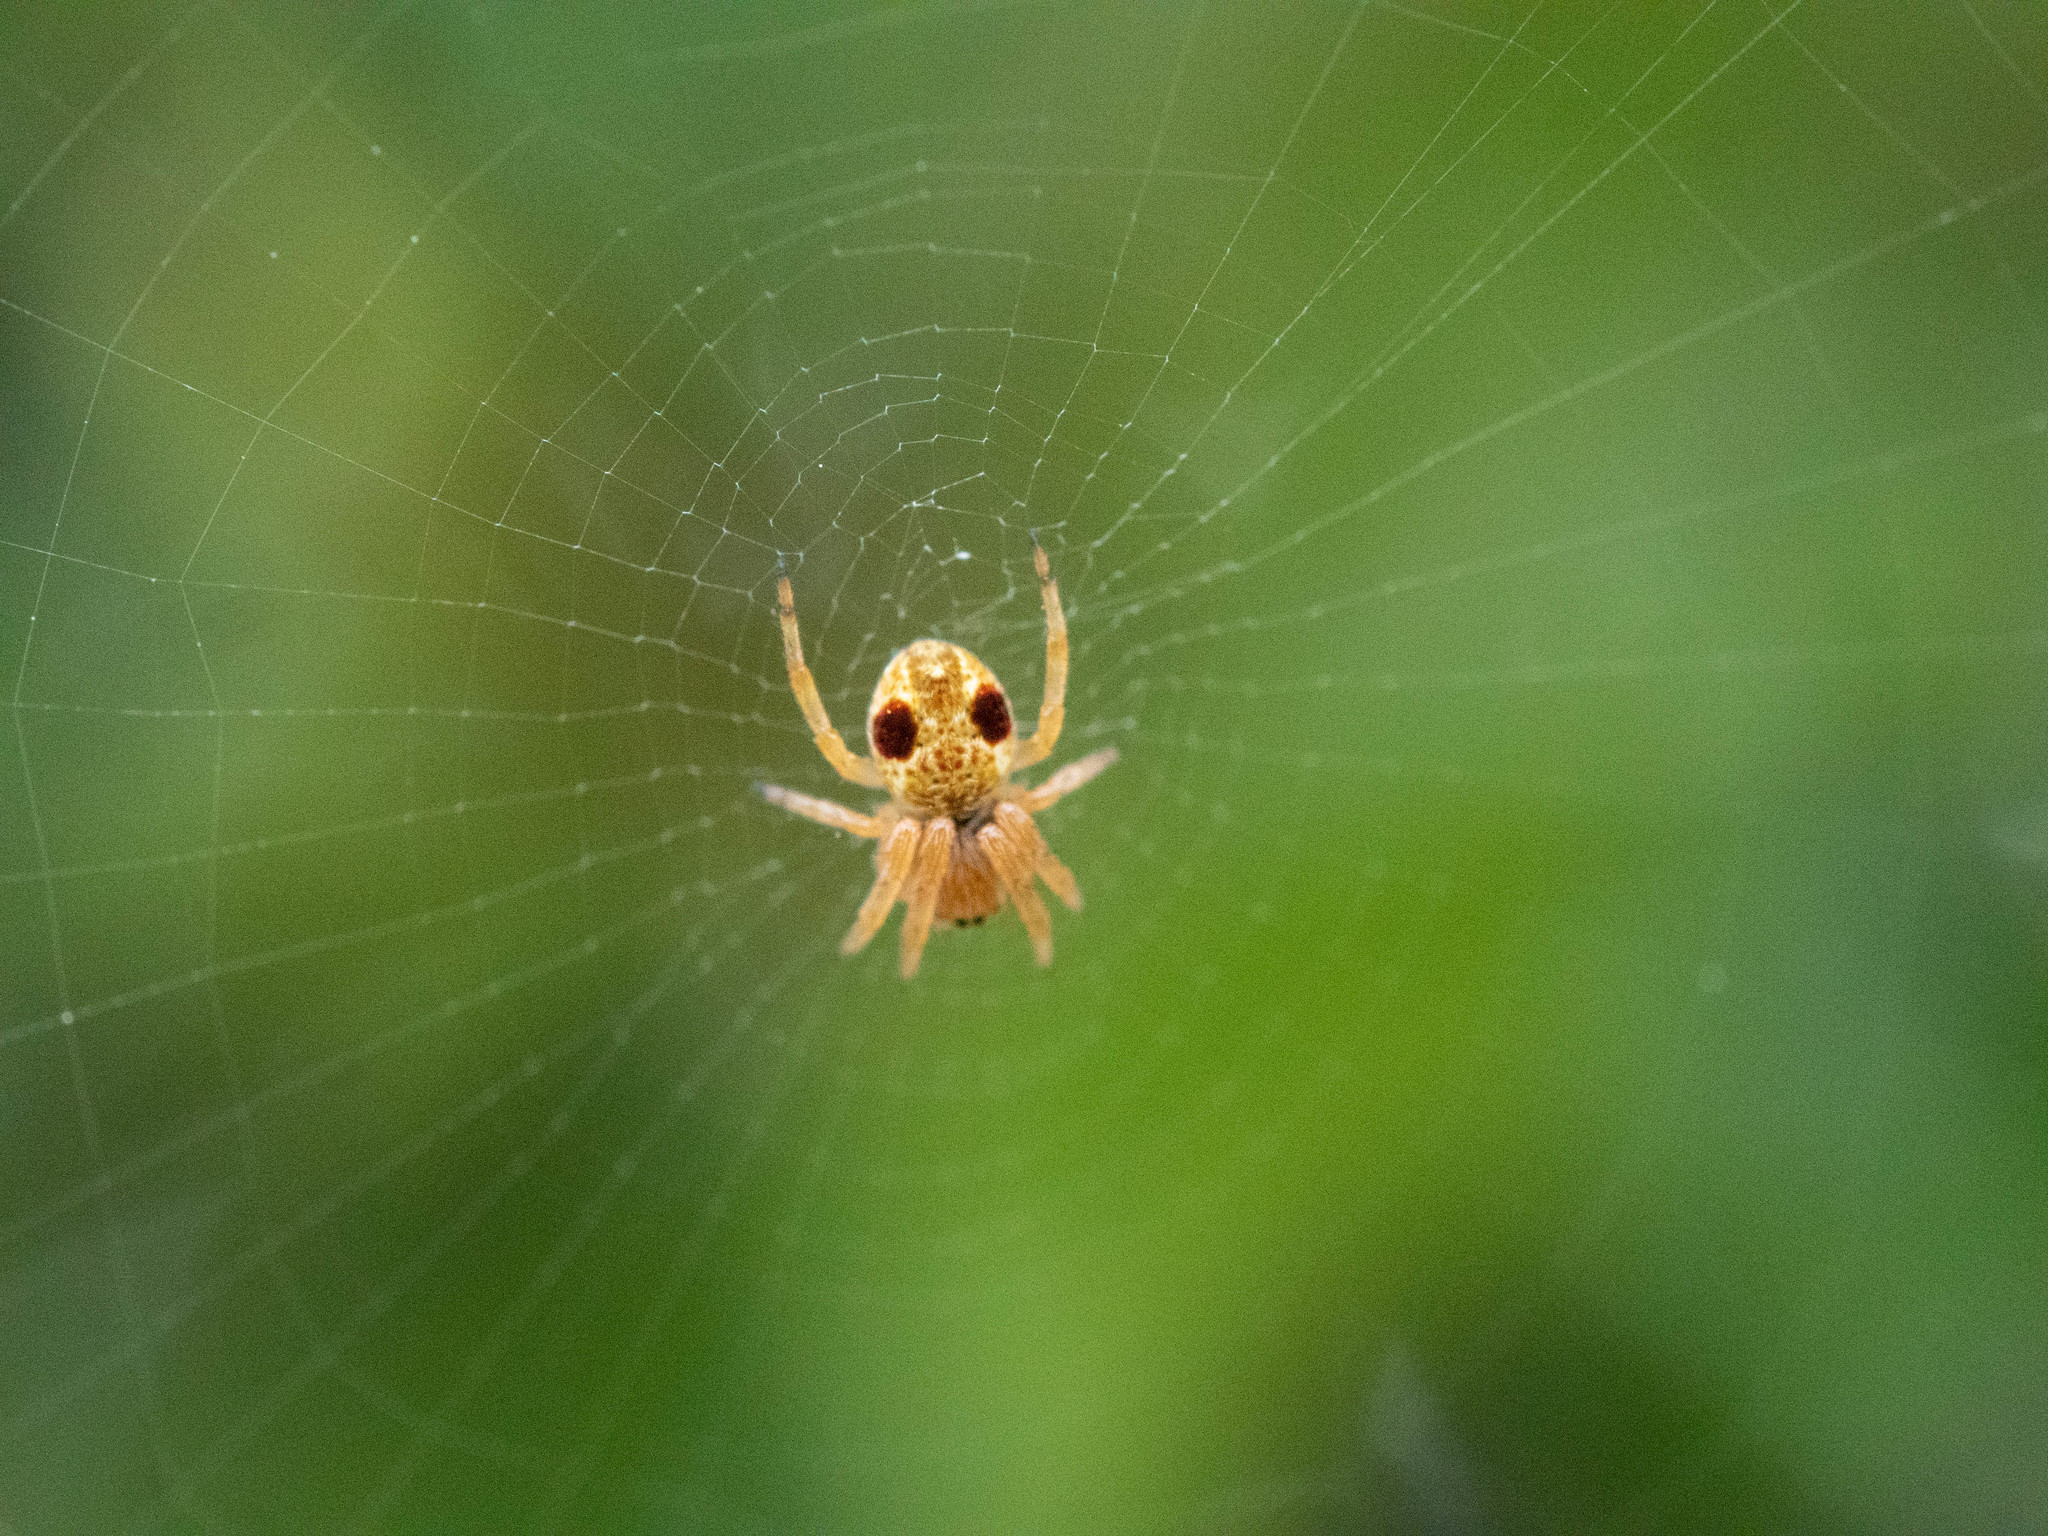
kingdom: Animalia
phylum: Arthropoda
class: Arachnida
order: Araneae
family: Araneidae
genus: Salsa
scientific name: Salsa fuliginata
